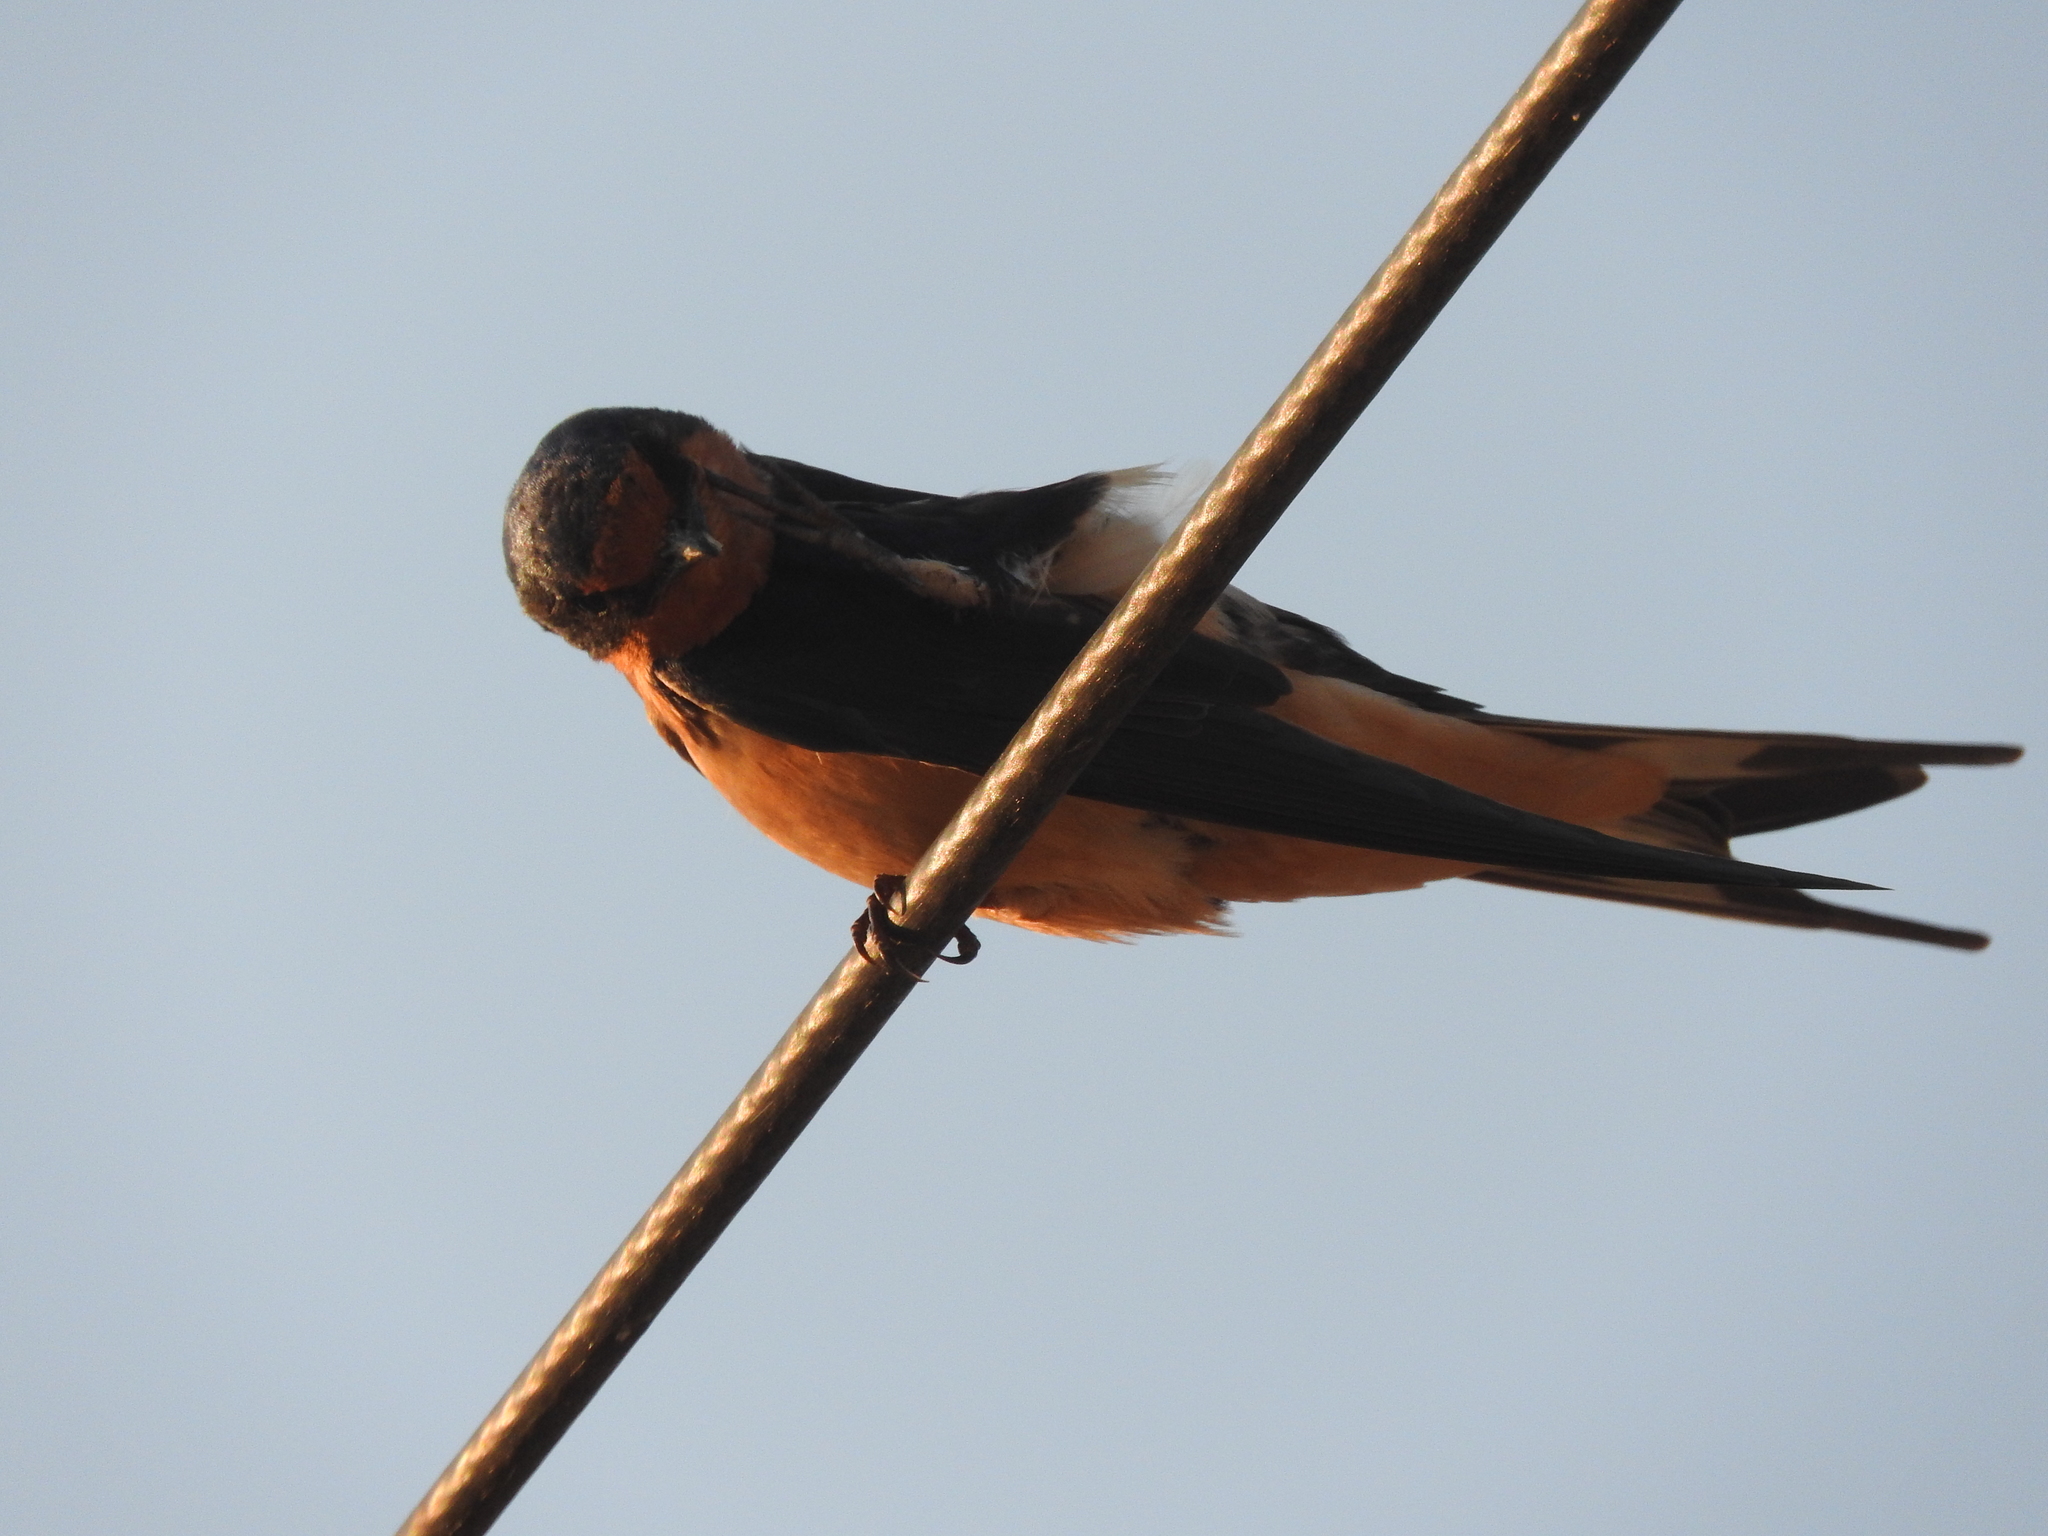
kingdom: Animalia
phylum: Chordata
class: Aves
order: Passeriformes
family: Hirundinidae
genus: Hirundo
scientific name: Hirundo rustica
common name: Barn swallow
